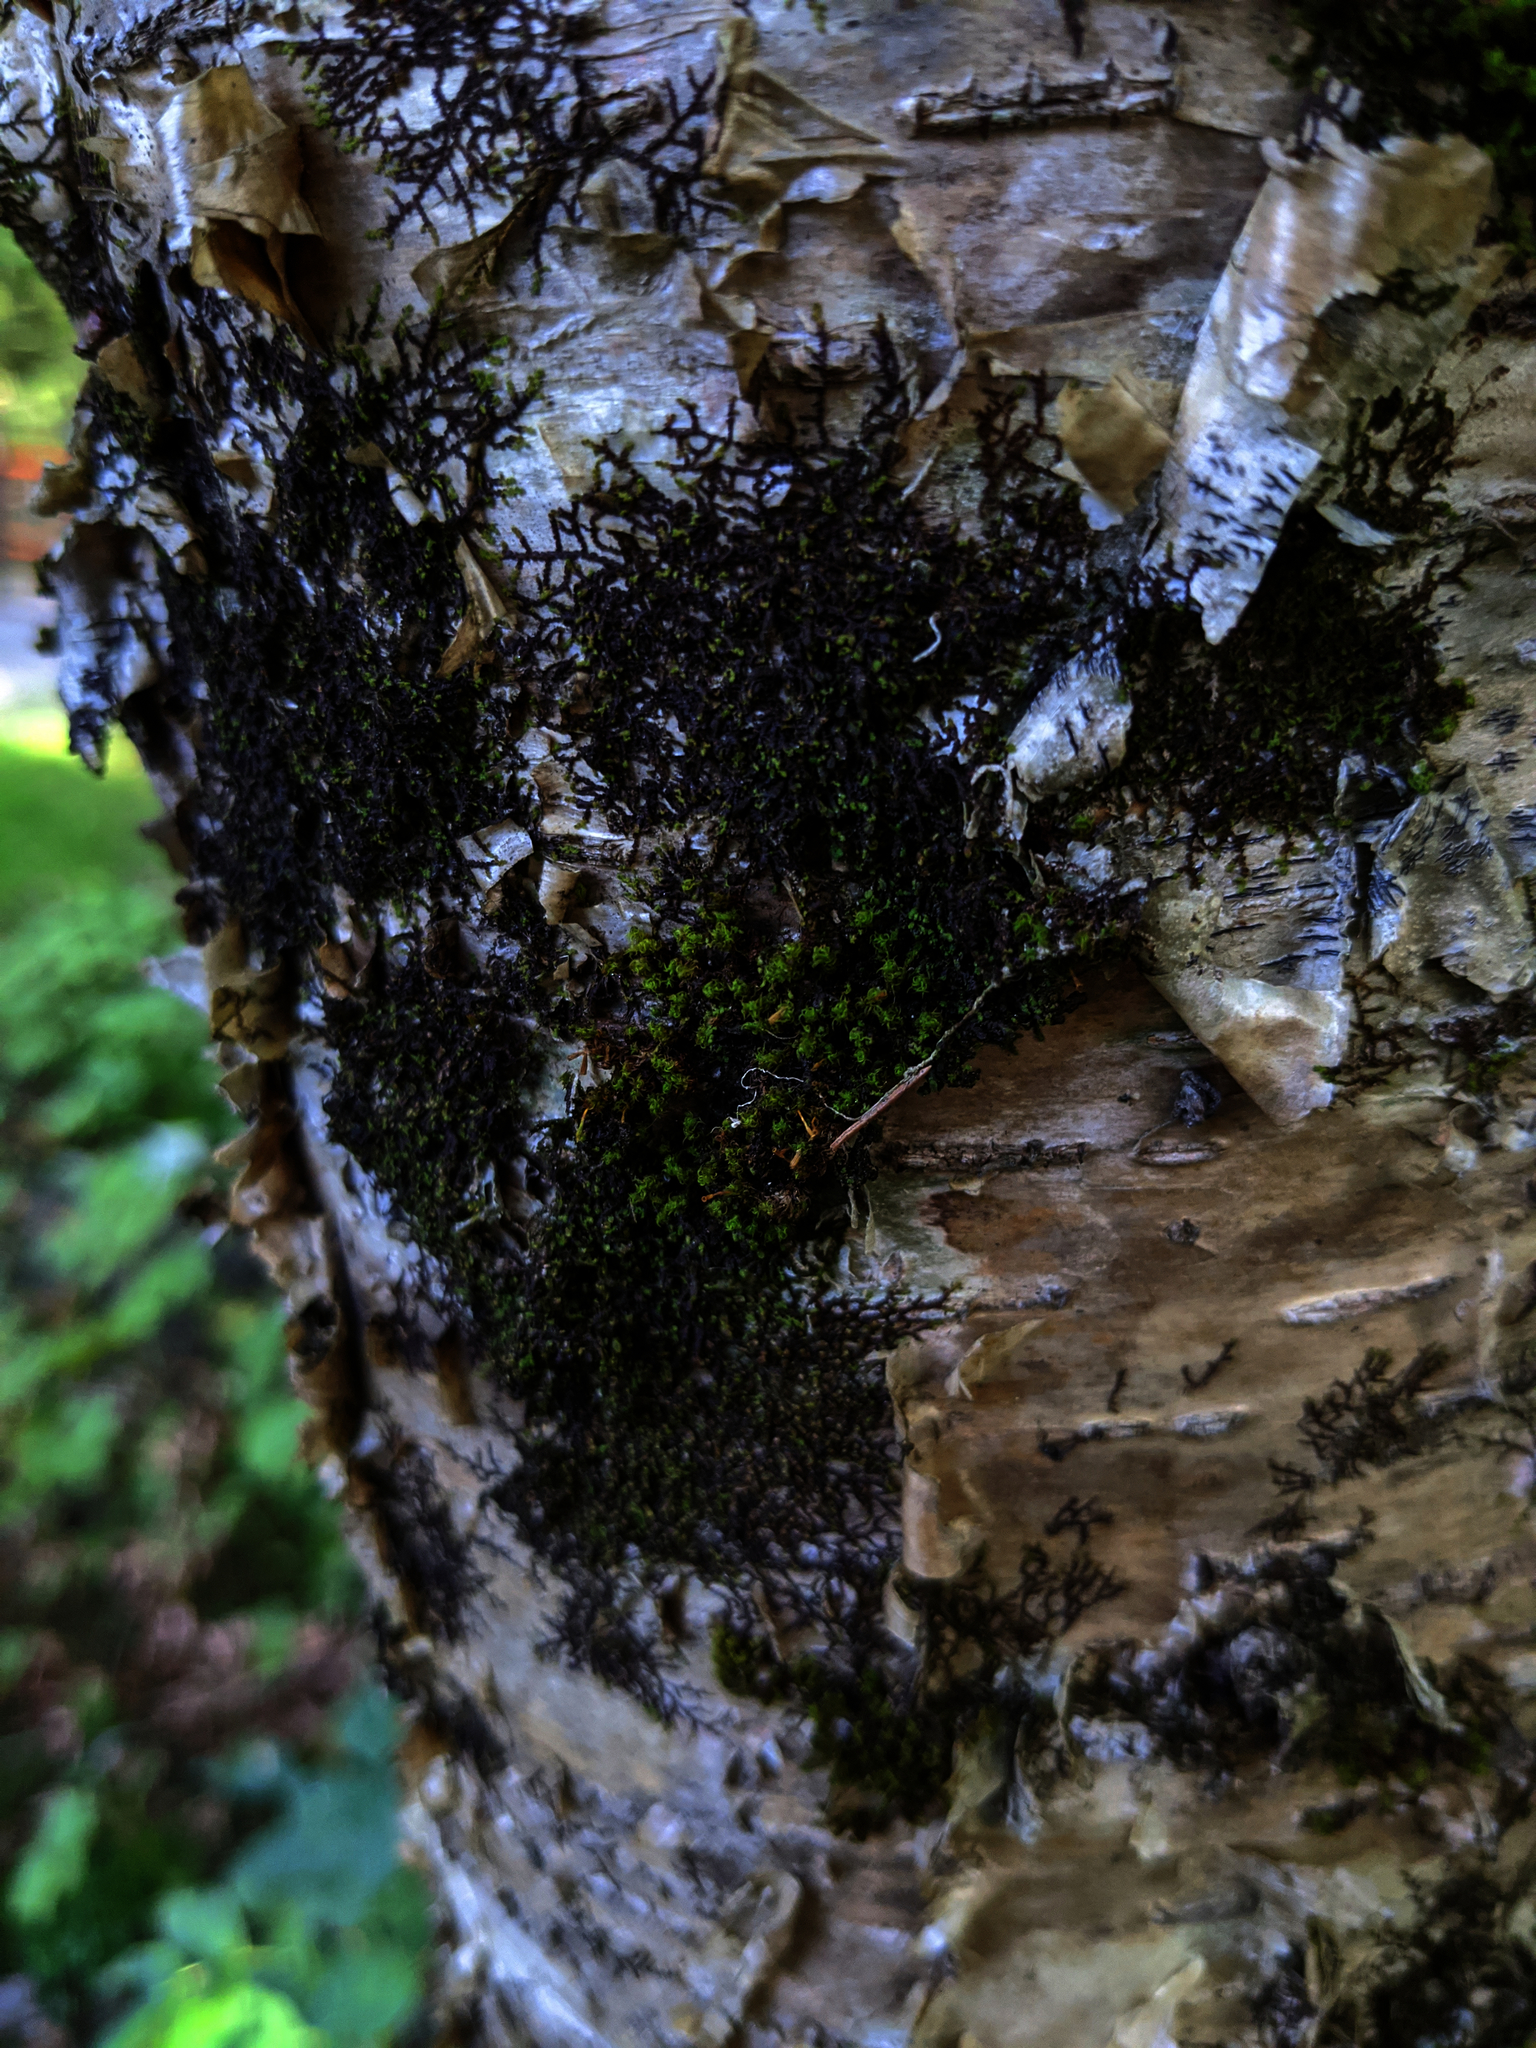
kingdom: Plantae
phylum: Bryophyta
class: Bryopsida
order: Orthotrichales
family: Orthotrichaceae
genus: Ulota
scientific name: Ulota crispa
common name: Crisped pincushion moss
